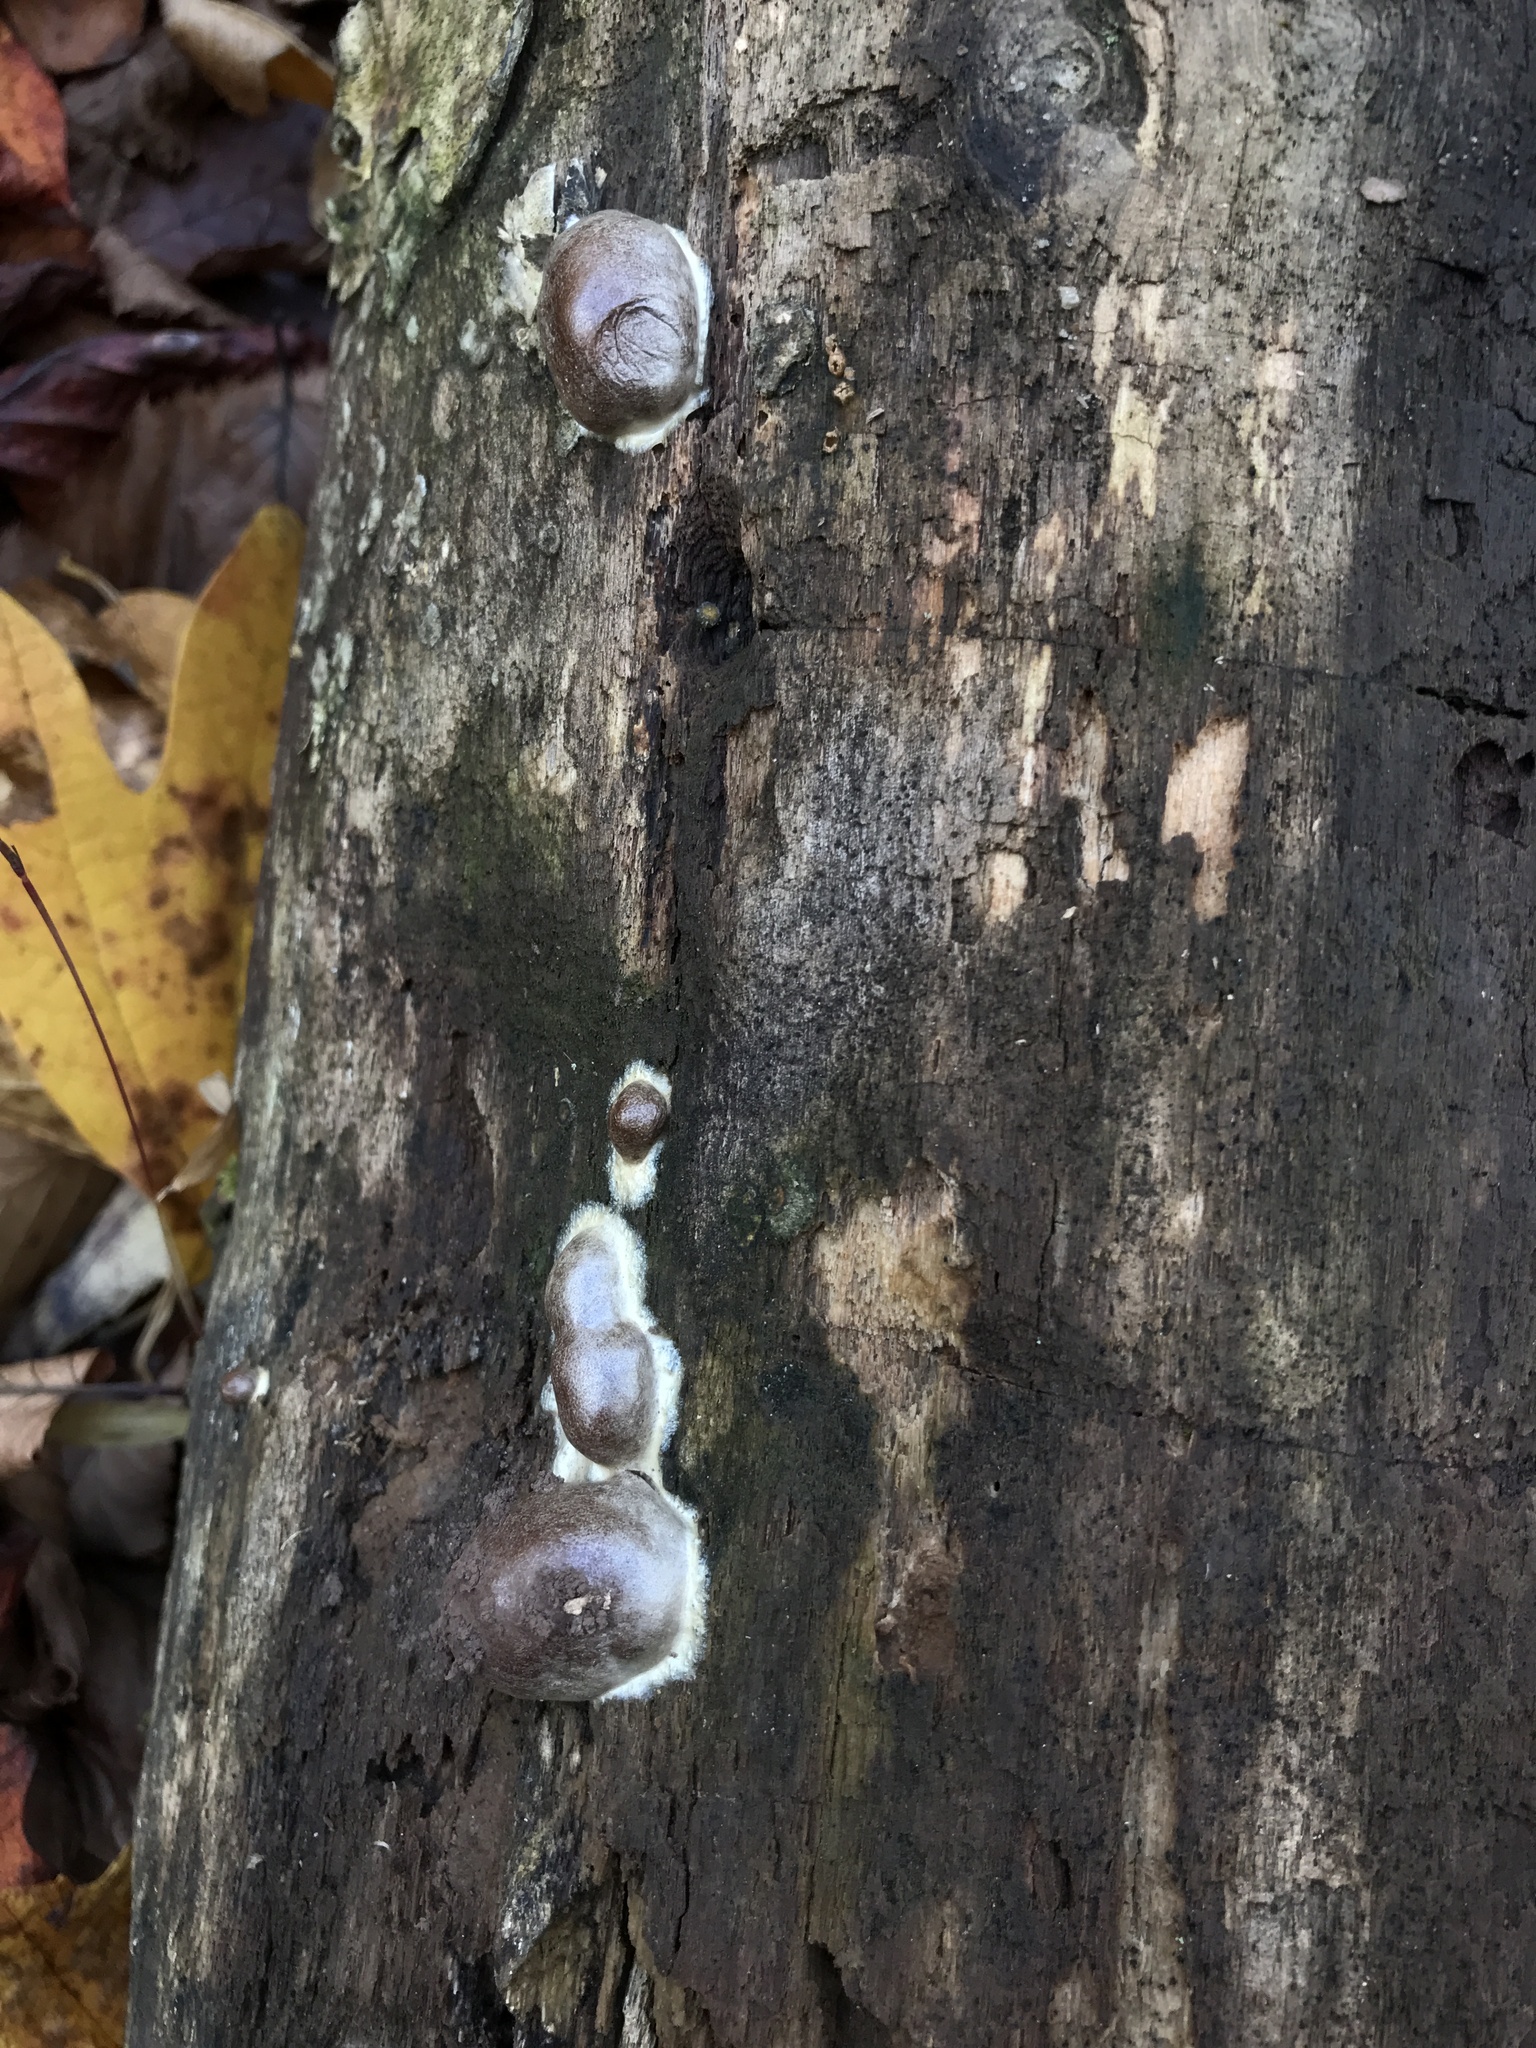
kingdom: Protozoa
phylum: Mycetozoa
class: Myxomycetes
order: Cribrariales
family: Tubiferaceae
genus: Reticularia
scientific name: Reticularia splendens
